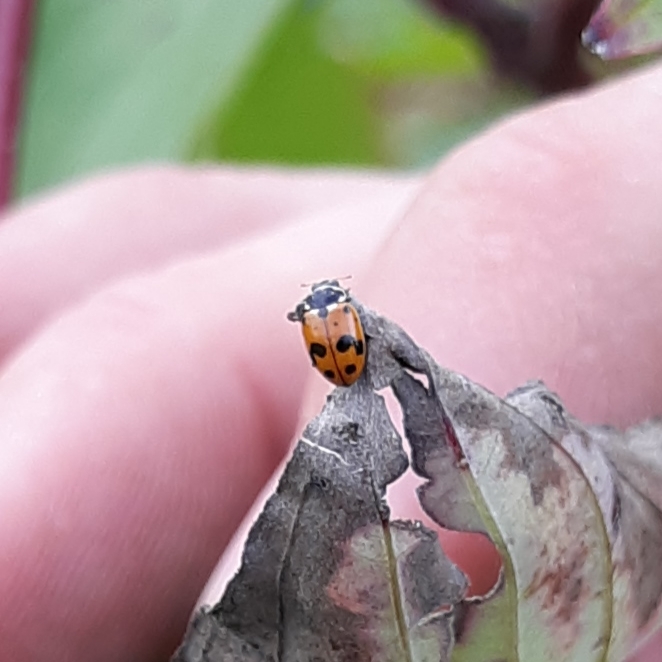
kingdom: Animalia
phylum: Arthropoda
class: Insecta
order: Coleoptera
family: Coccinellidae
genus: Hippodamia
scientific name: Hippodamia variegata
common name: Ladybird beetle
